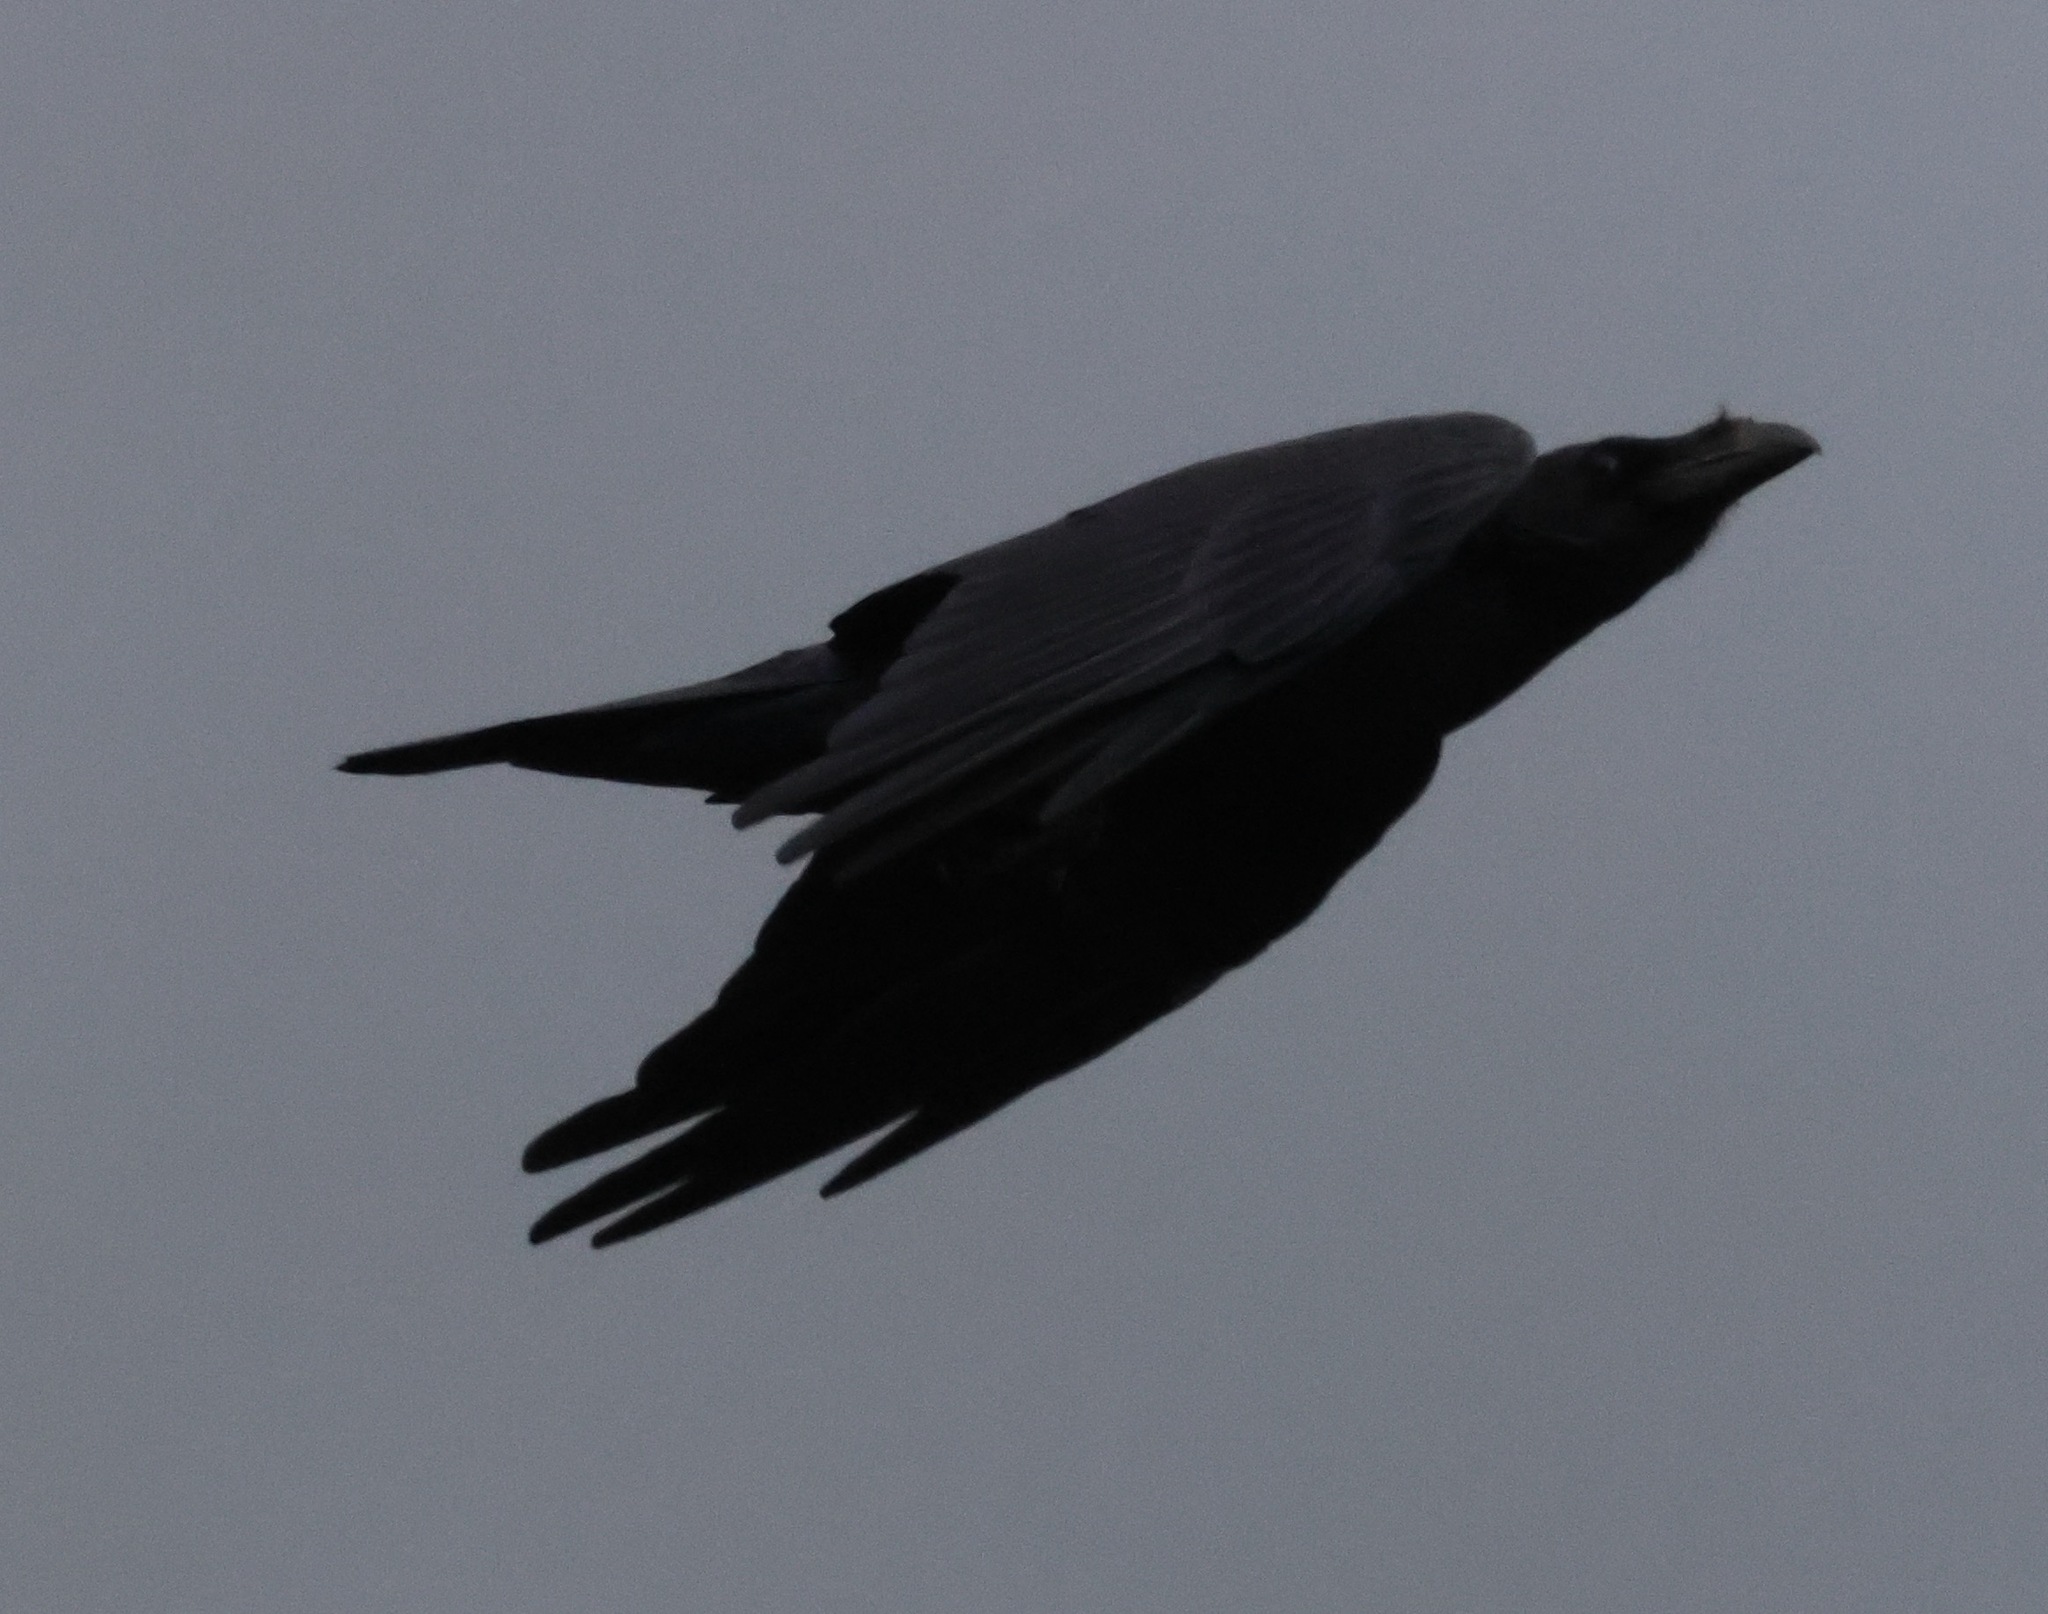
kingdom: Animalia
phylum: Chordata
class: Aves
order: Passeriformes
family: Corvidae
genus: Corvus
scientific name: Corvus corax
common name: Common raven
